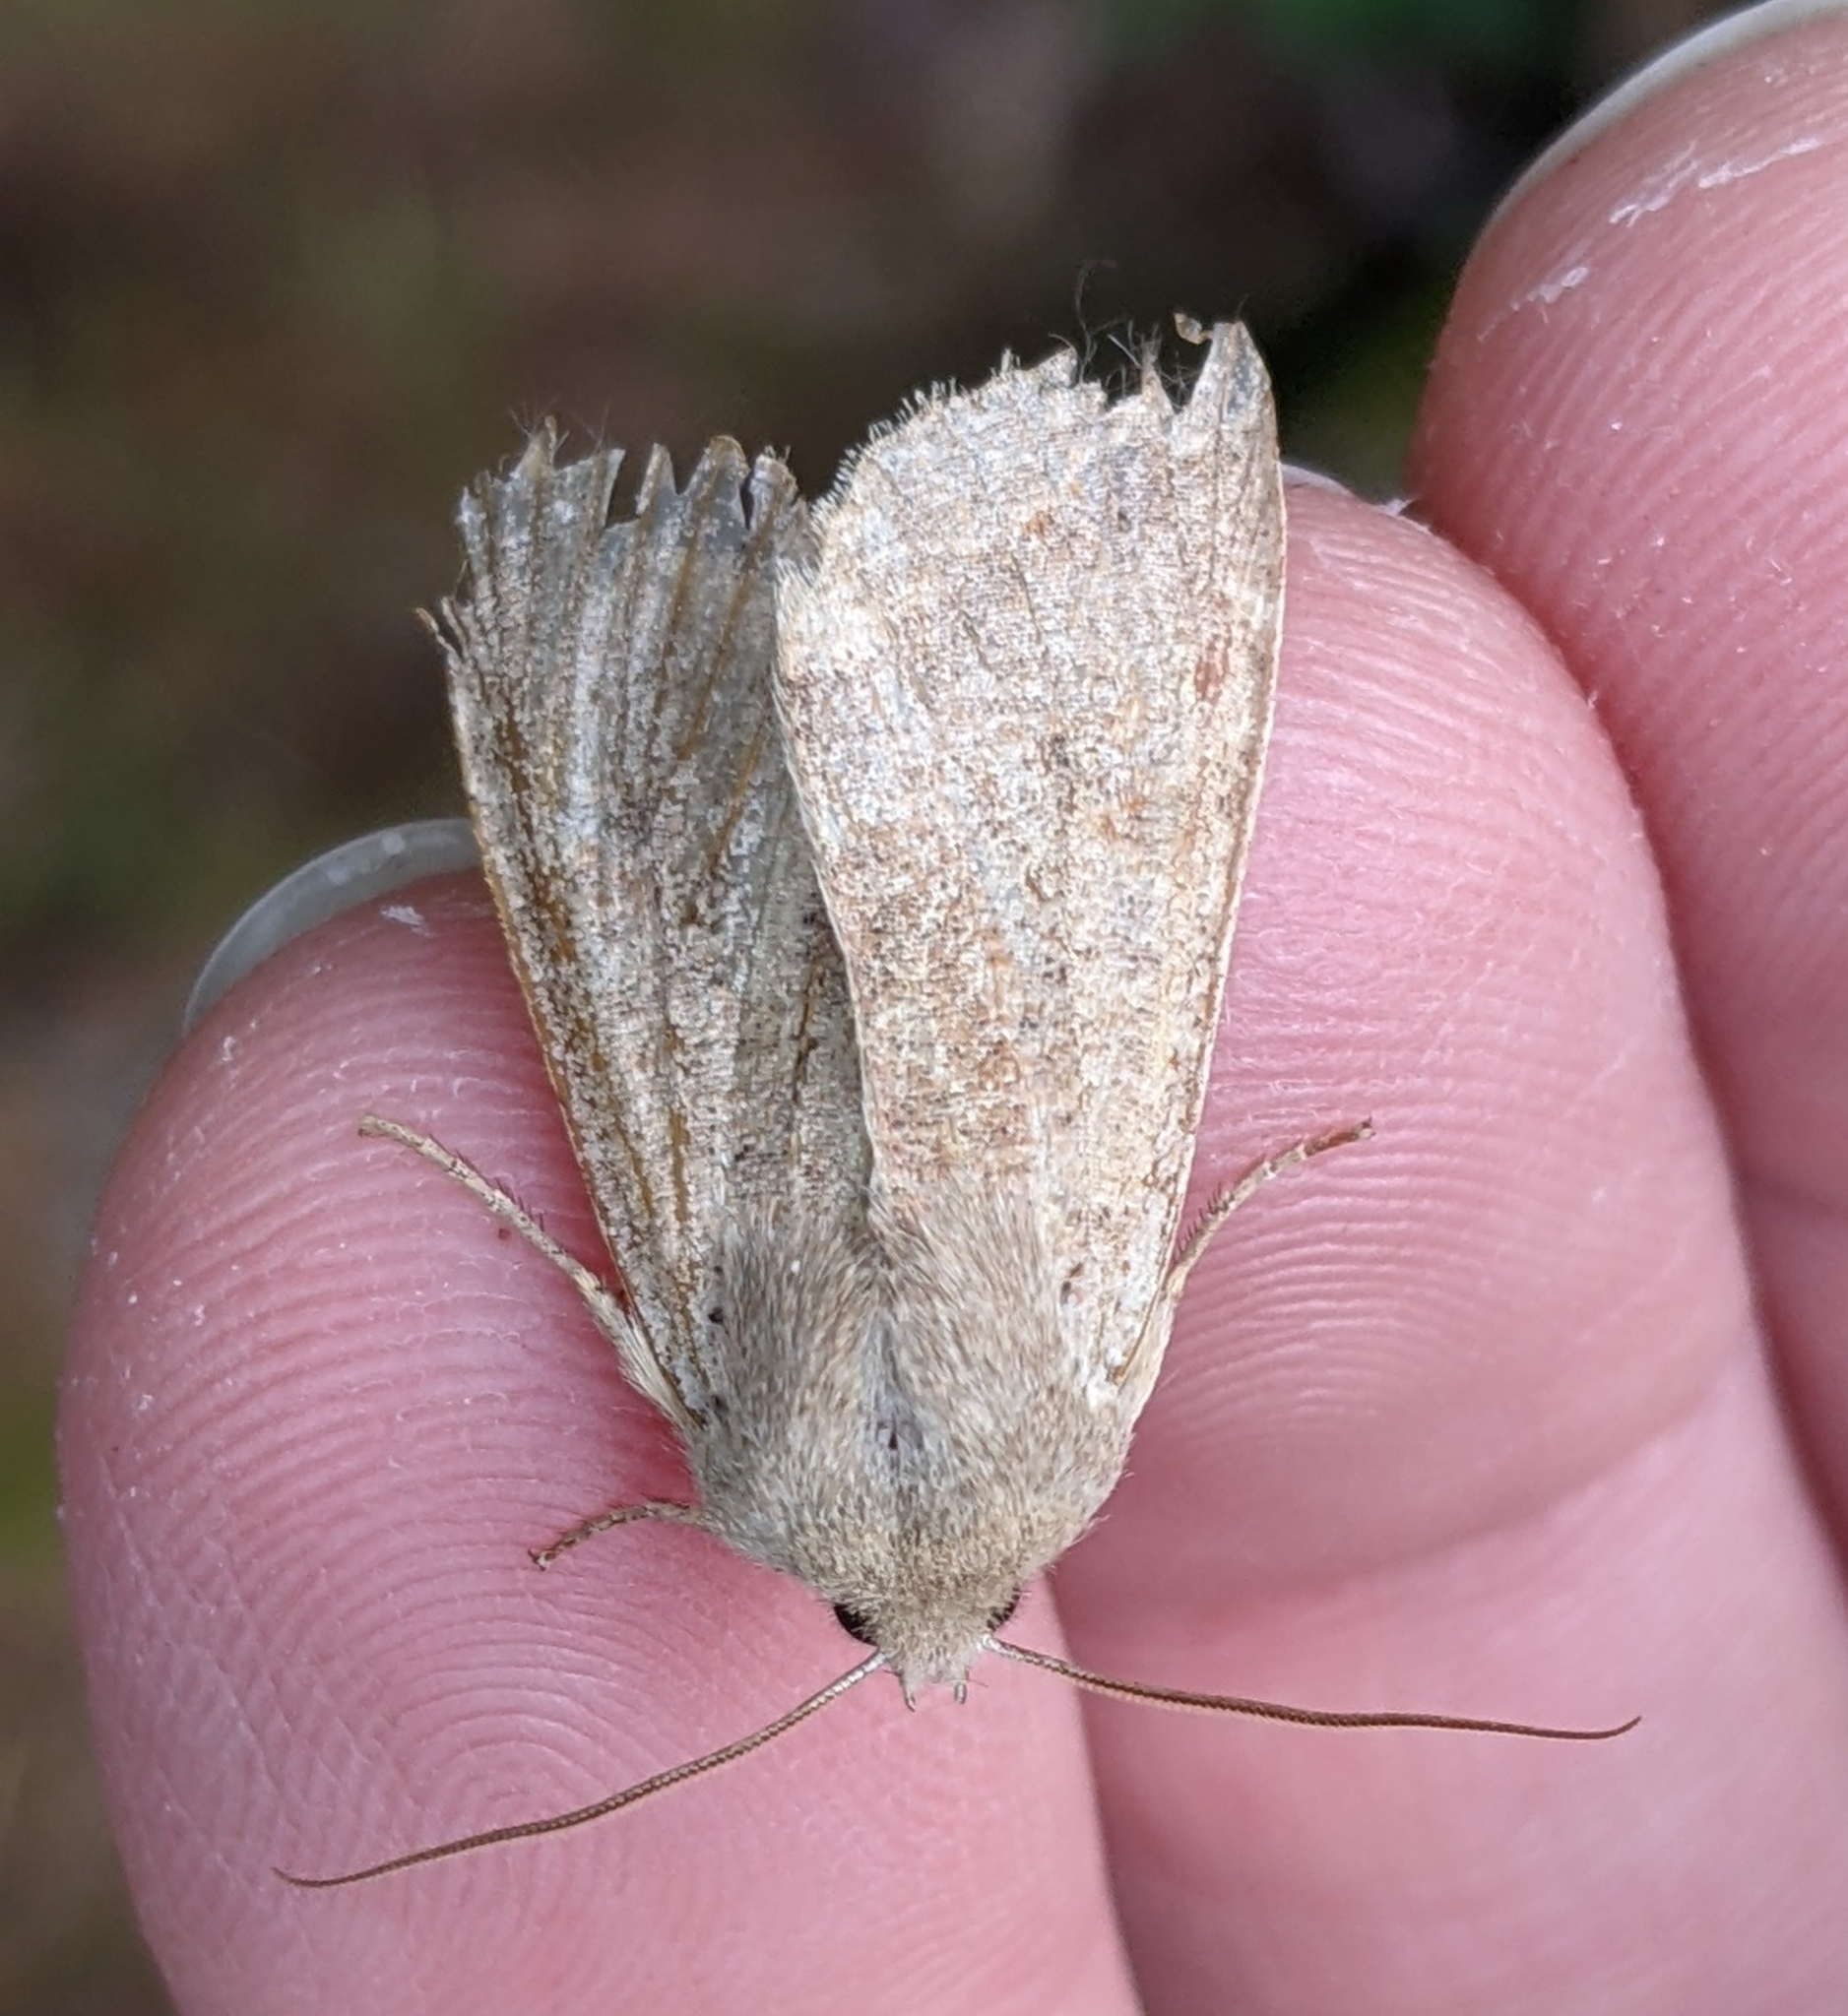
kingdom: Animalia
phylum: Arthropoda
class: Insecta
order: Lepidoptera
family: Noctuidae
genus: Orthosia
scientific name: Orthosia pacifica
